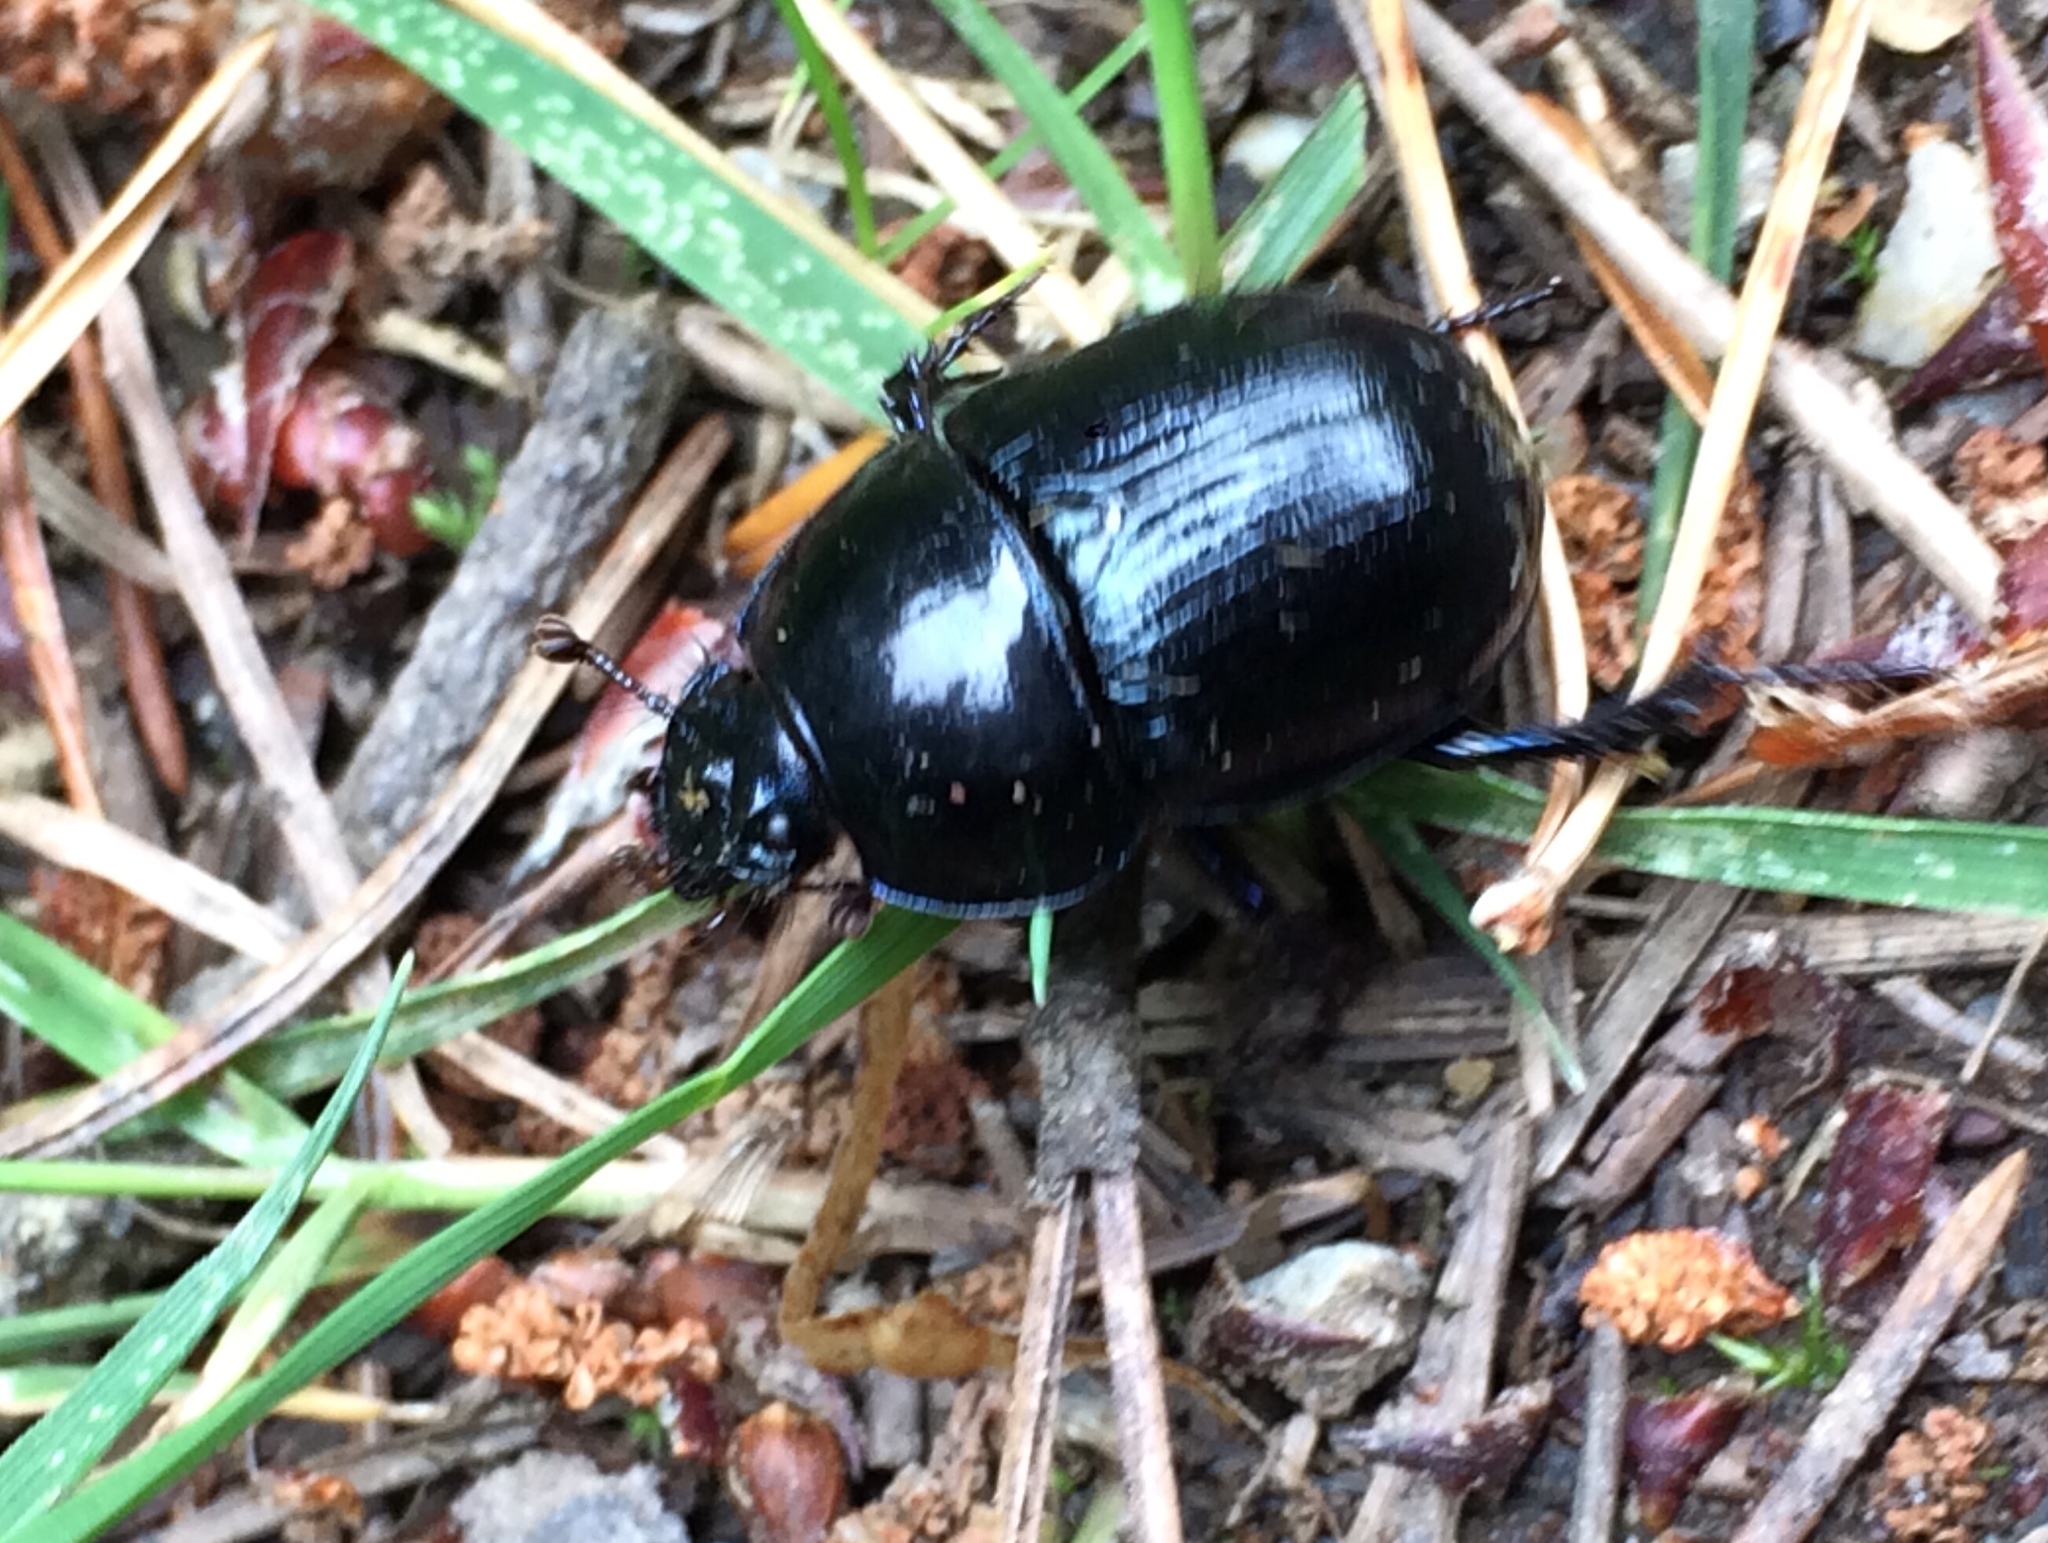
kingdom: Animalia
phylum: Arthropoda
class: Insecta
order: Coleoptera
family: Geotrupidae
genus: Anoplotrupes
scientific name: Anoplotrupes stercorosus
